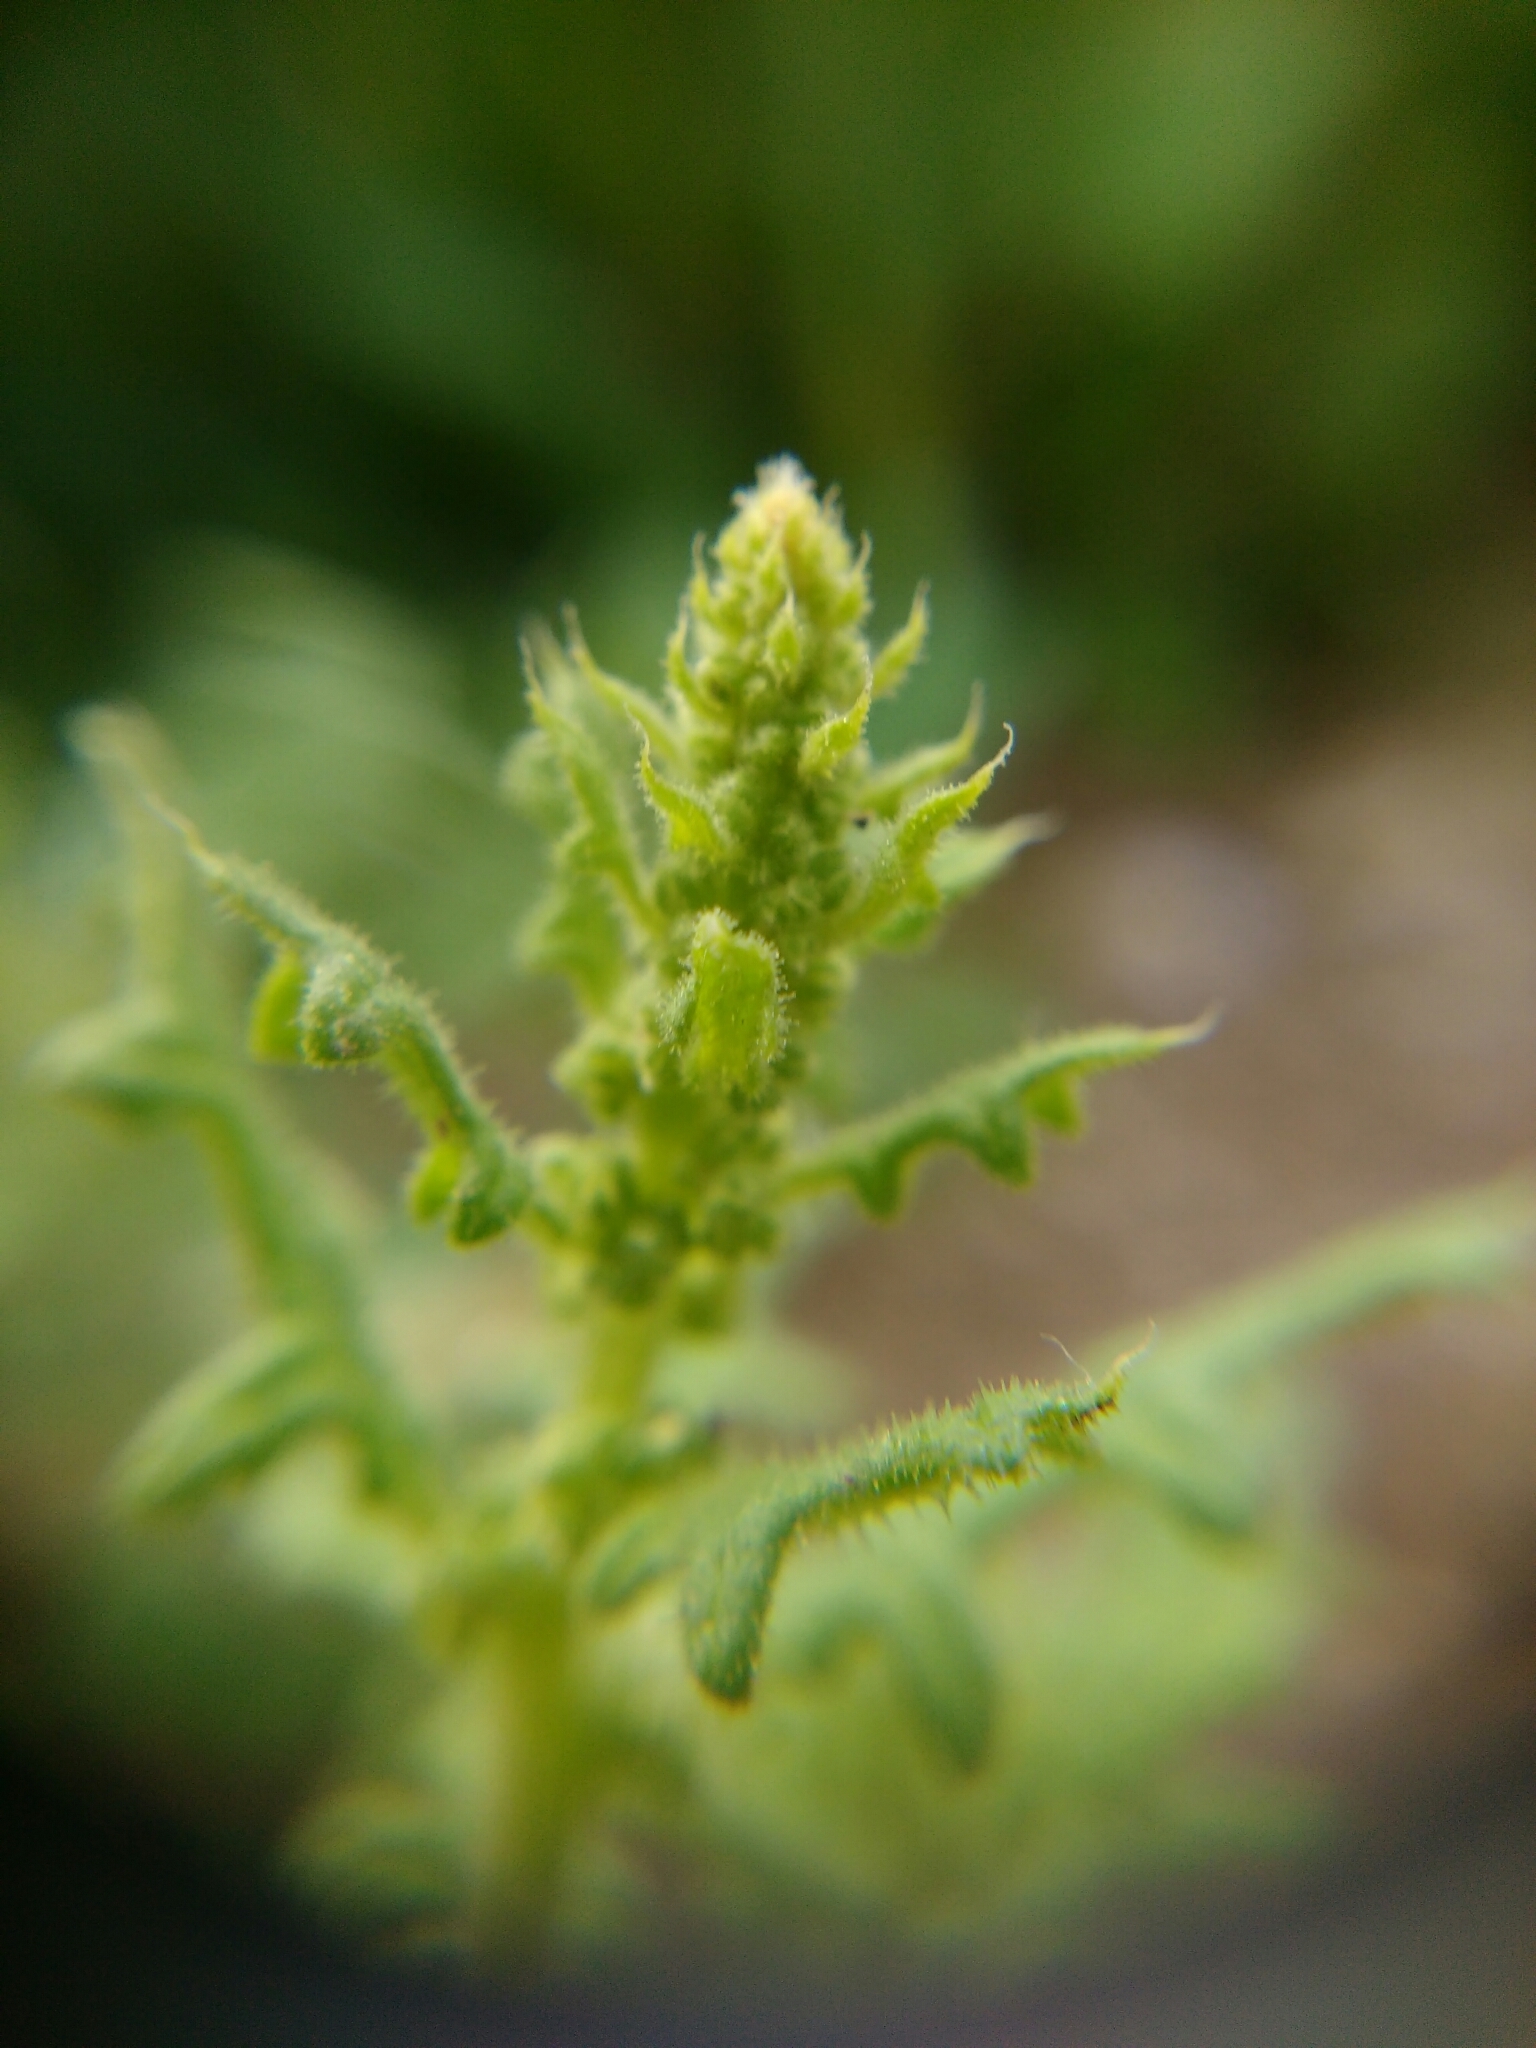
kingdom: Plantae
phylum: Tracheophyta
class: Magnoliopsida
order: Caryophyllales
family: Amaranthaceae
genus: Dysphania
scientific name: Dysphania botrys
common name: Feather-geranium
